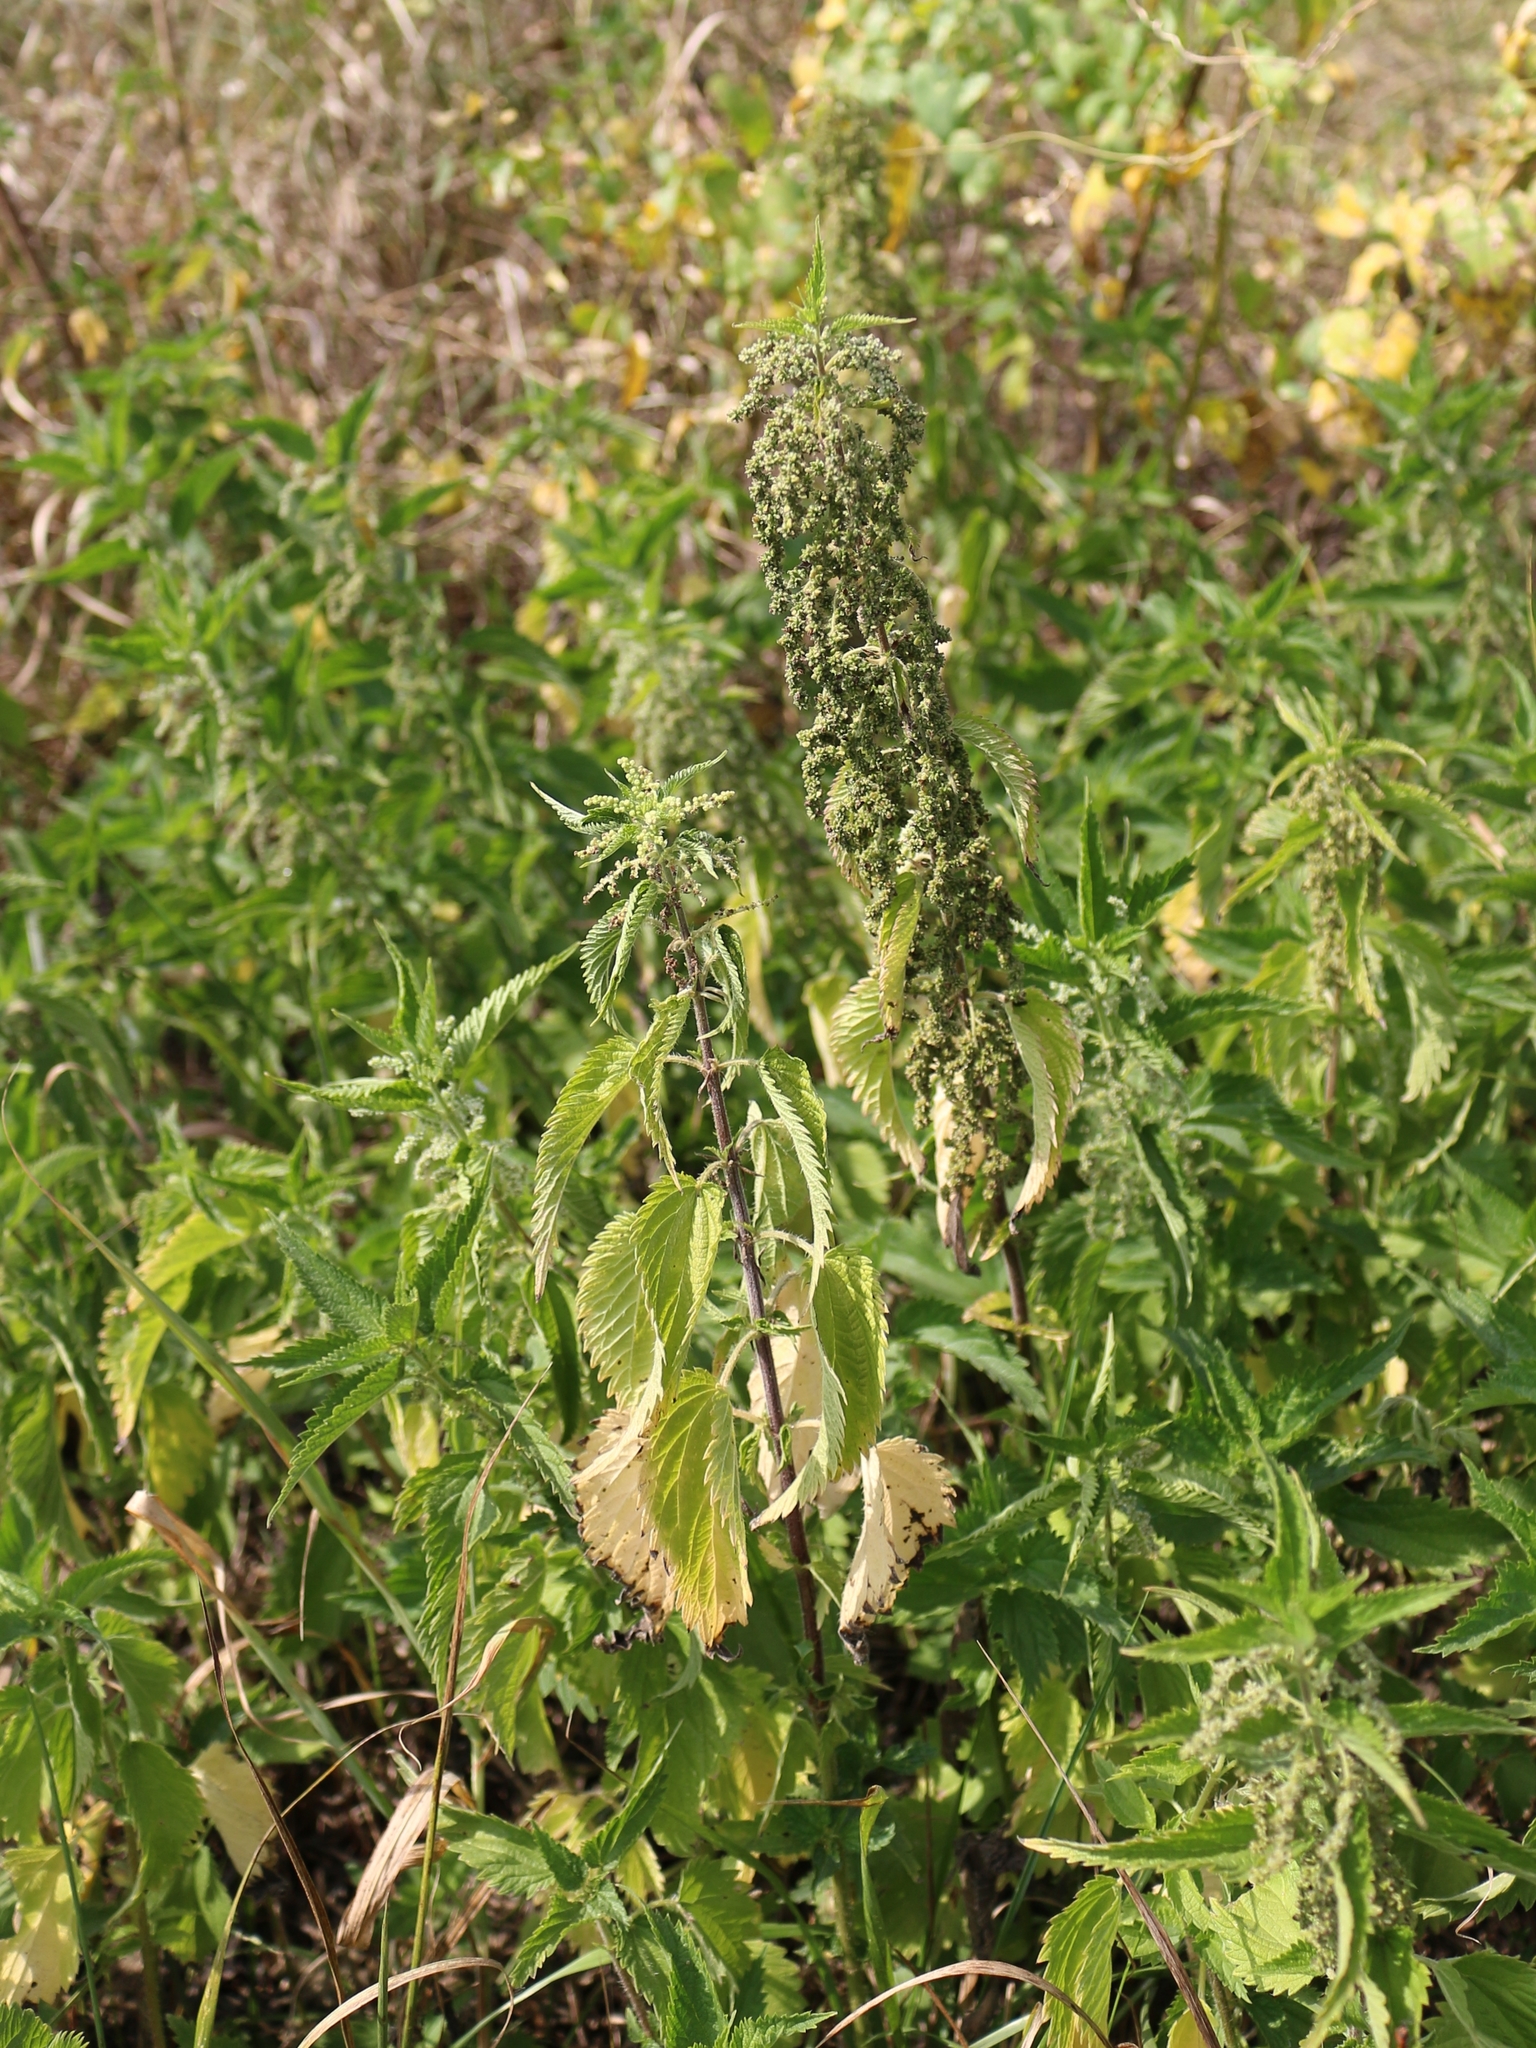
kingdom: Plantae
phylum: Tracheophyta
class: Magnoliopsida
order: Rosales
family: Urticaceae
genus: Urtica
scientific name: Urtica dioica
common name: Common nettle
